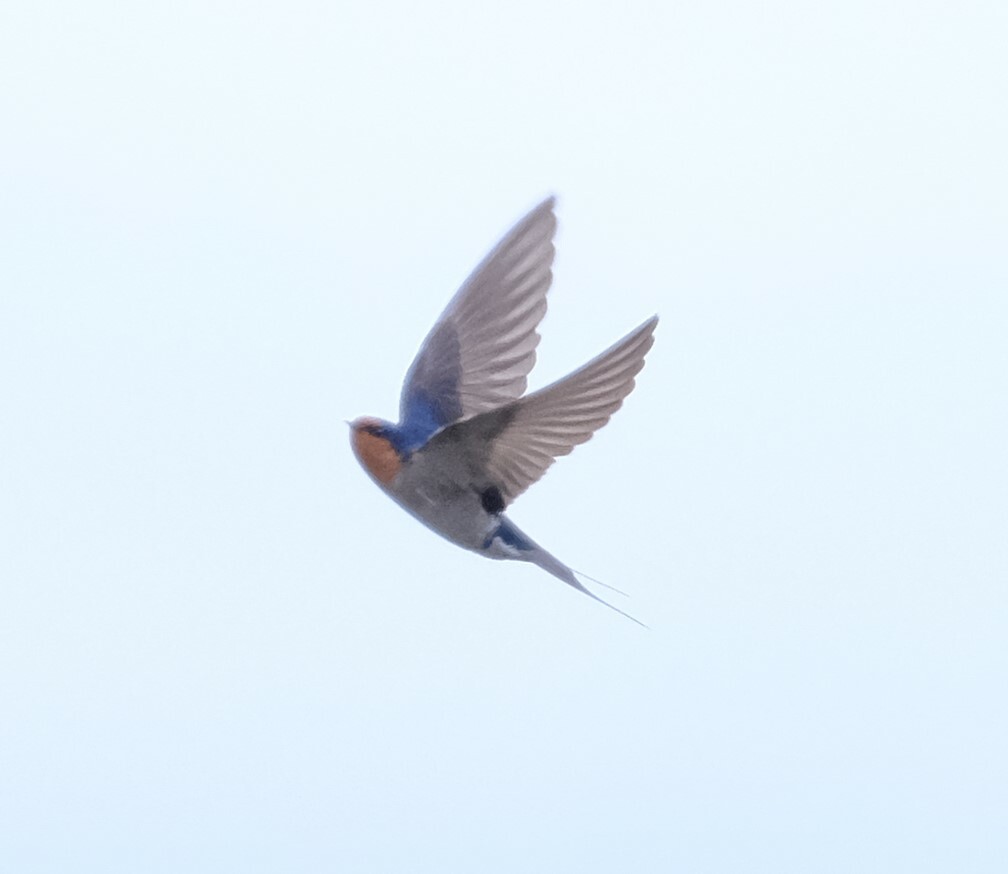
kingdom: Animalia
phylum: Chordata
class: Aves
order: Passeriformes
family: Hirundinidae
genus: Hirundo
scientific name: Hirundo neoxena
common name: Welcome swallow
